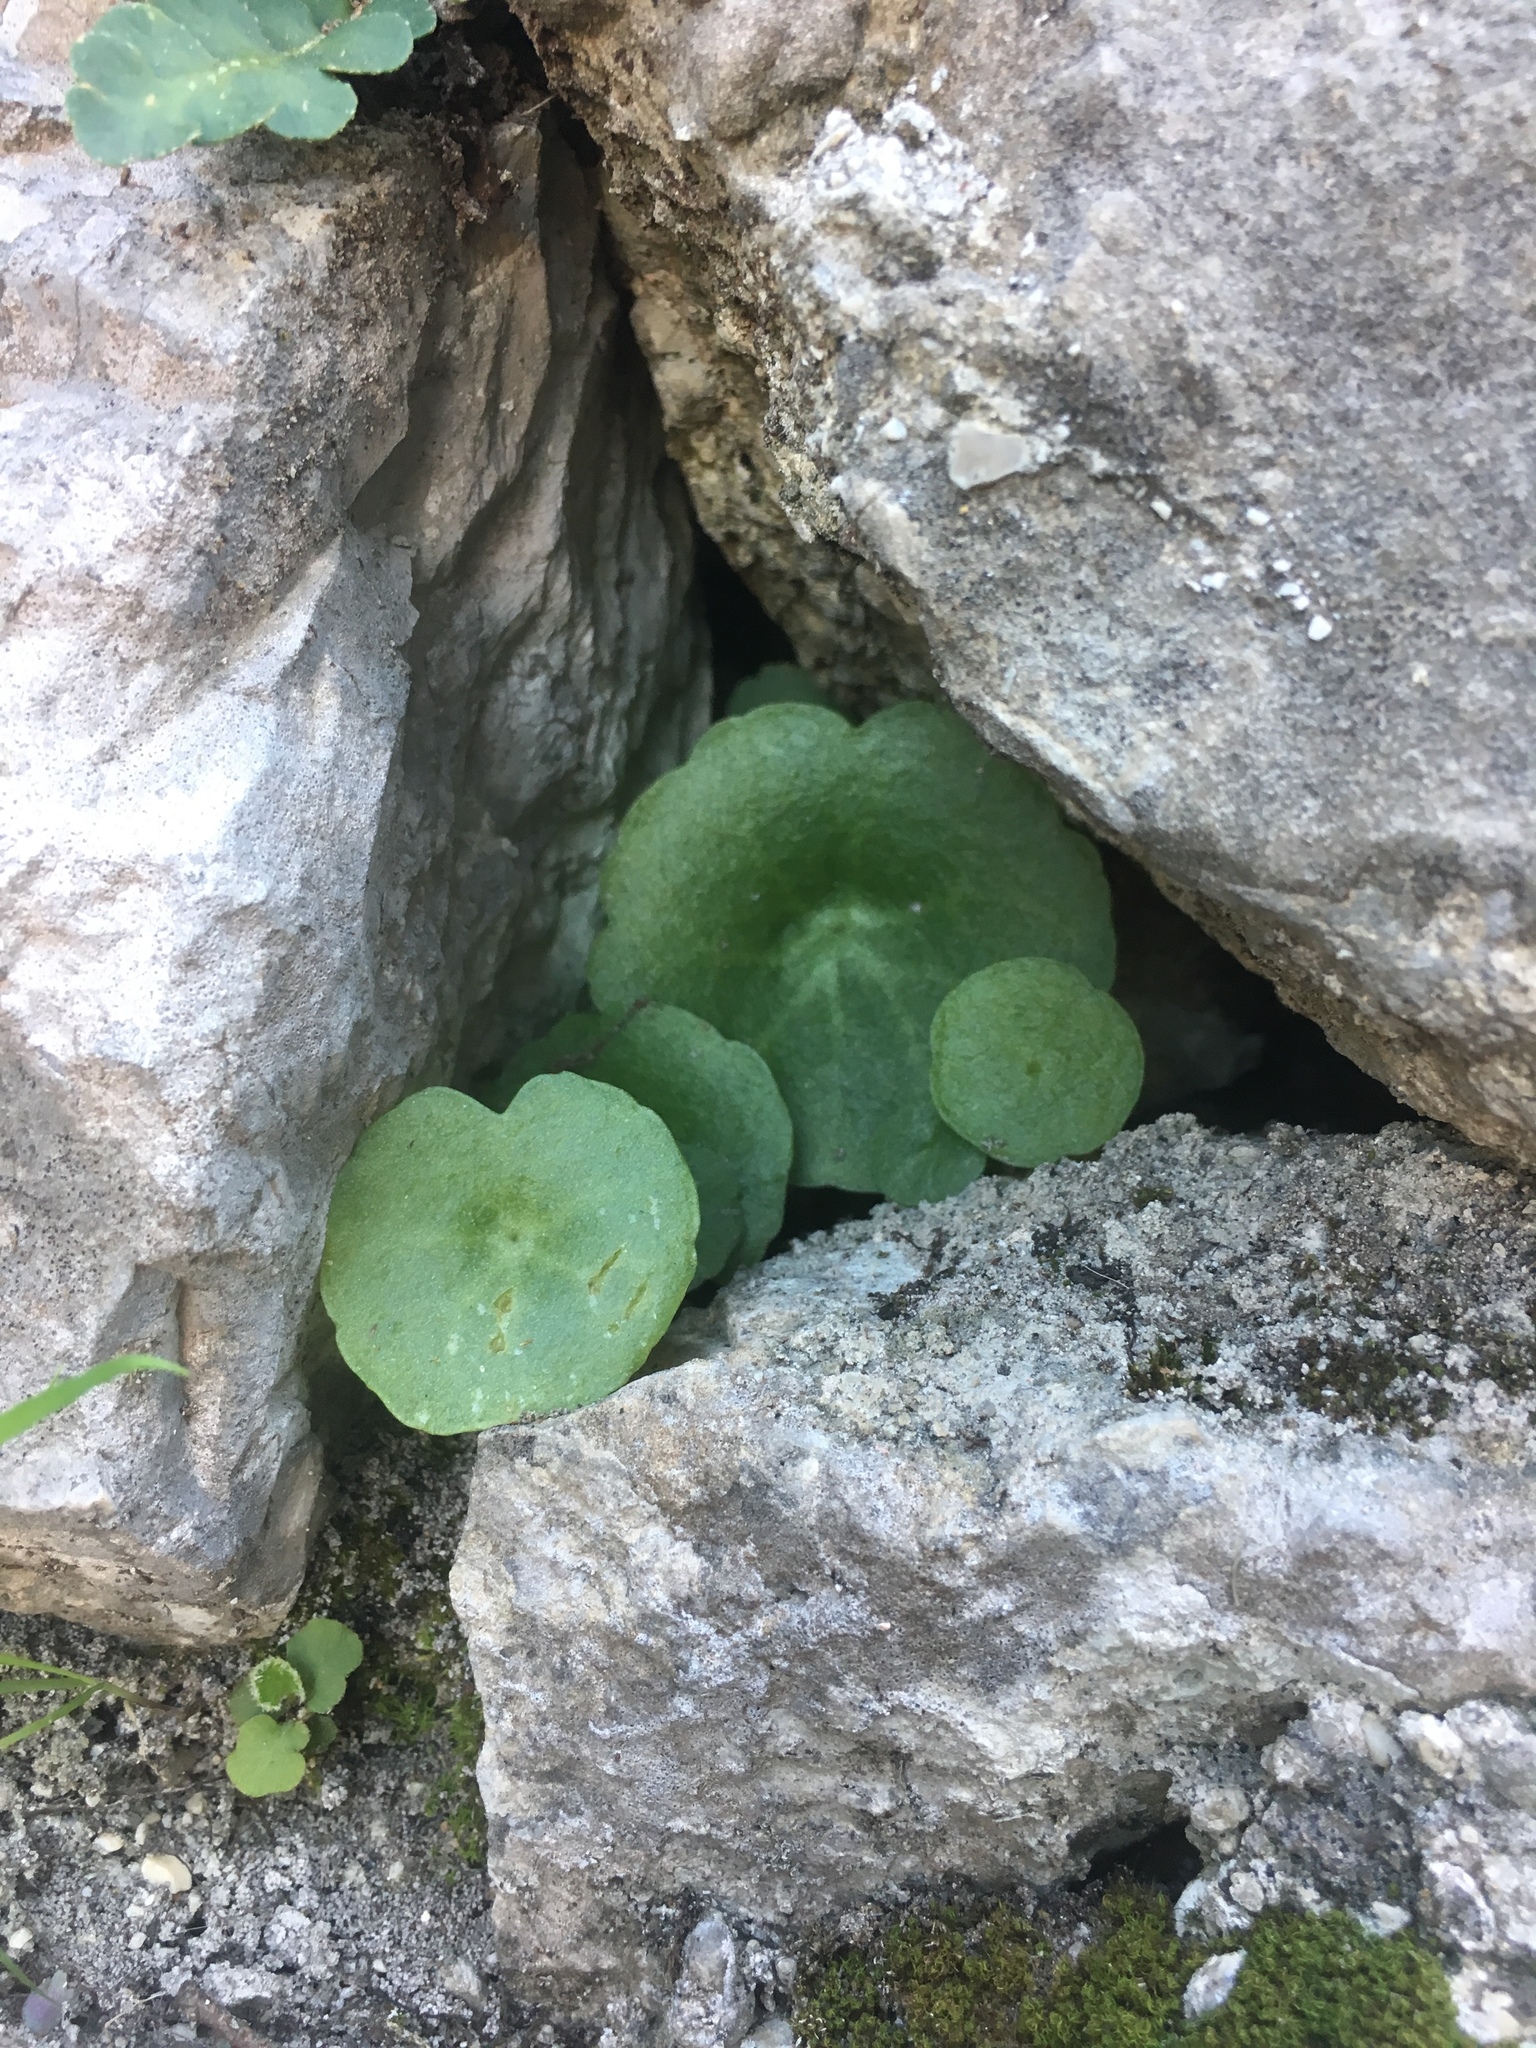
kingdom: Plantae
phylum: Tracheophyta
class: Magnoliopsida
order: Saxifragales
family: Crassulaceae
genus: Umbilicus
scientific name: Umbilicus rupestris
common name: Navelwort
